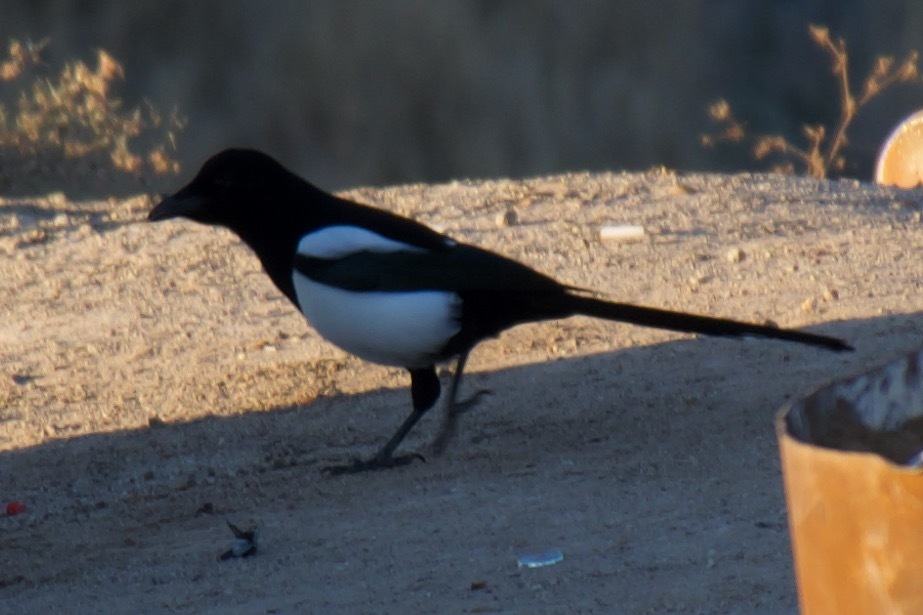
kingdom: Animalia
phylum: Chordata
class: Aves
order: Passeriformes
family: Corvidae
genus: Pica
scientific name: Pica pica
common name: Eurasian magpie
